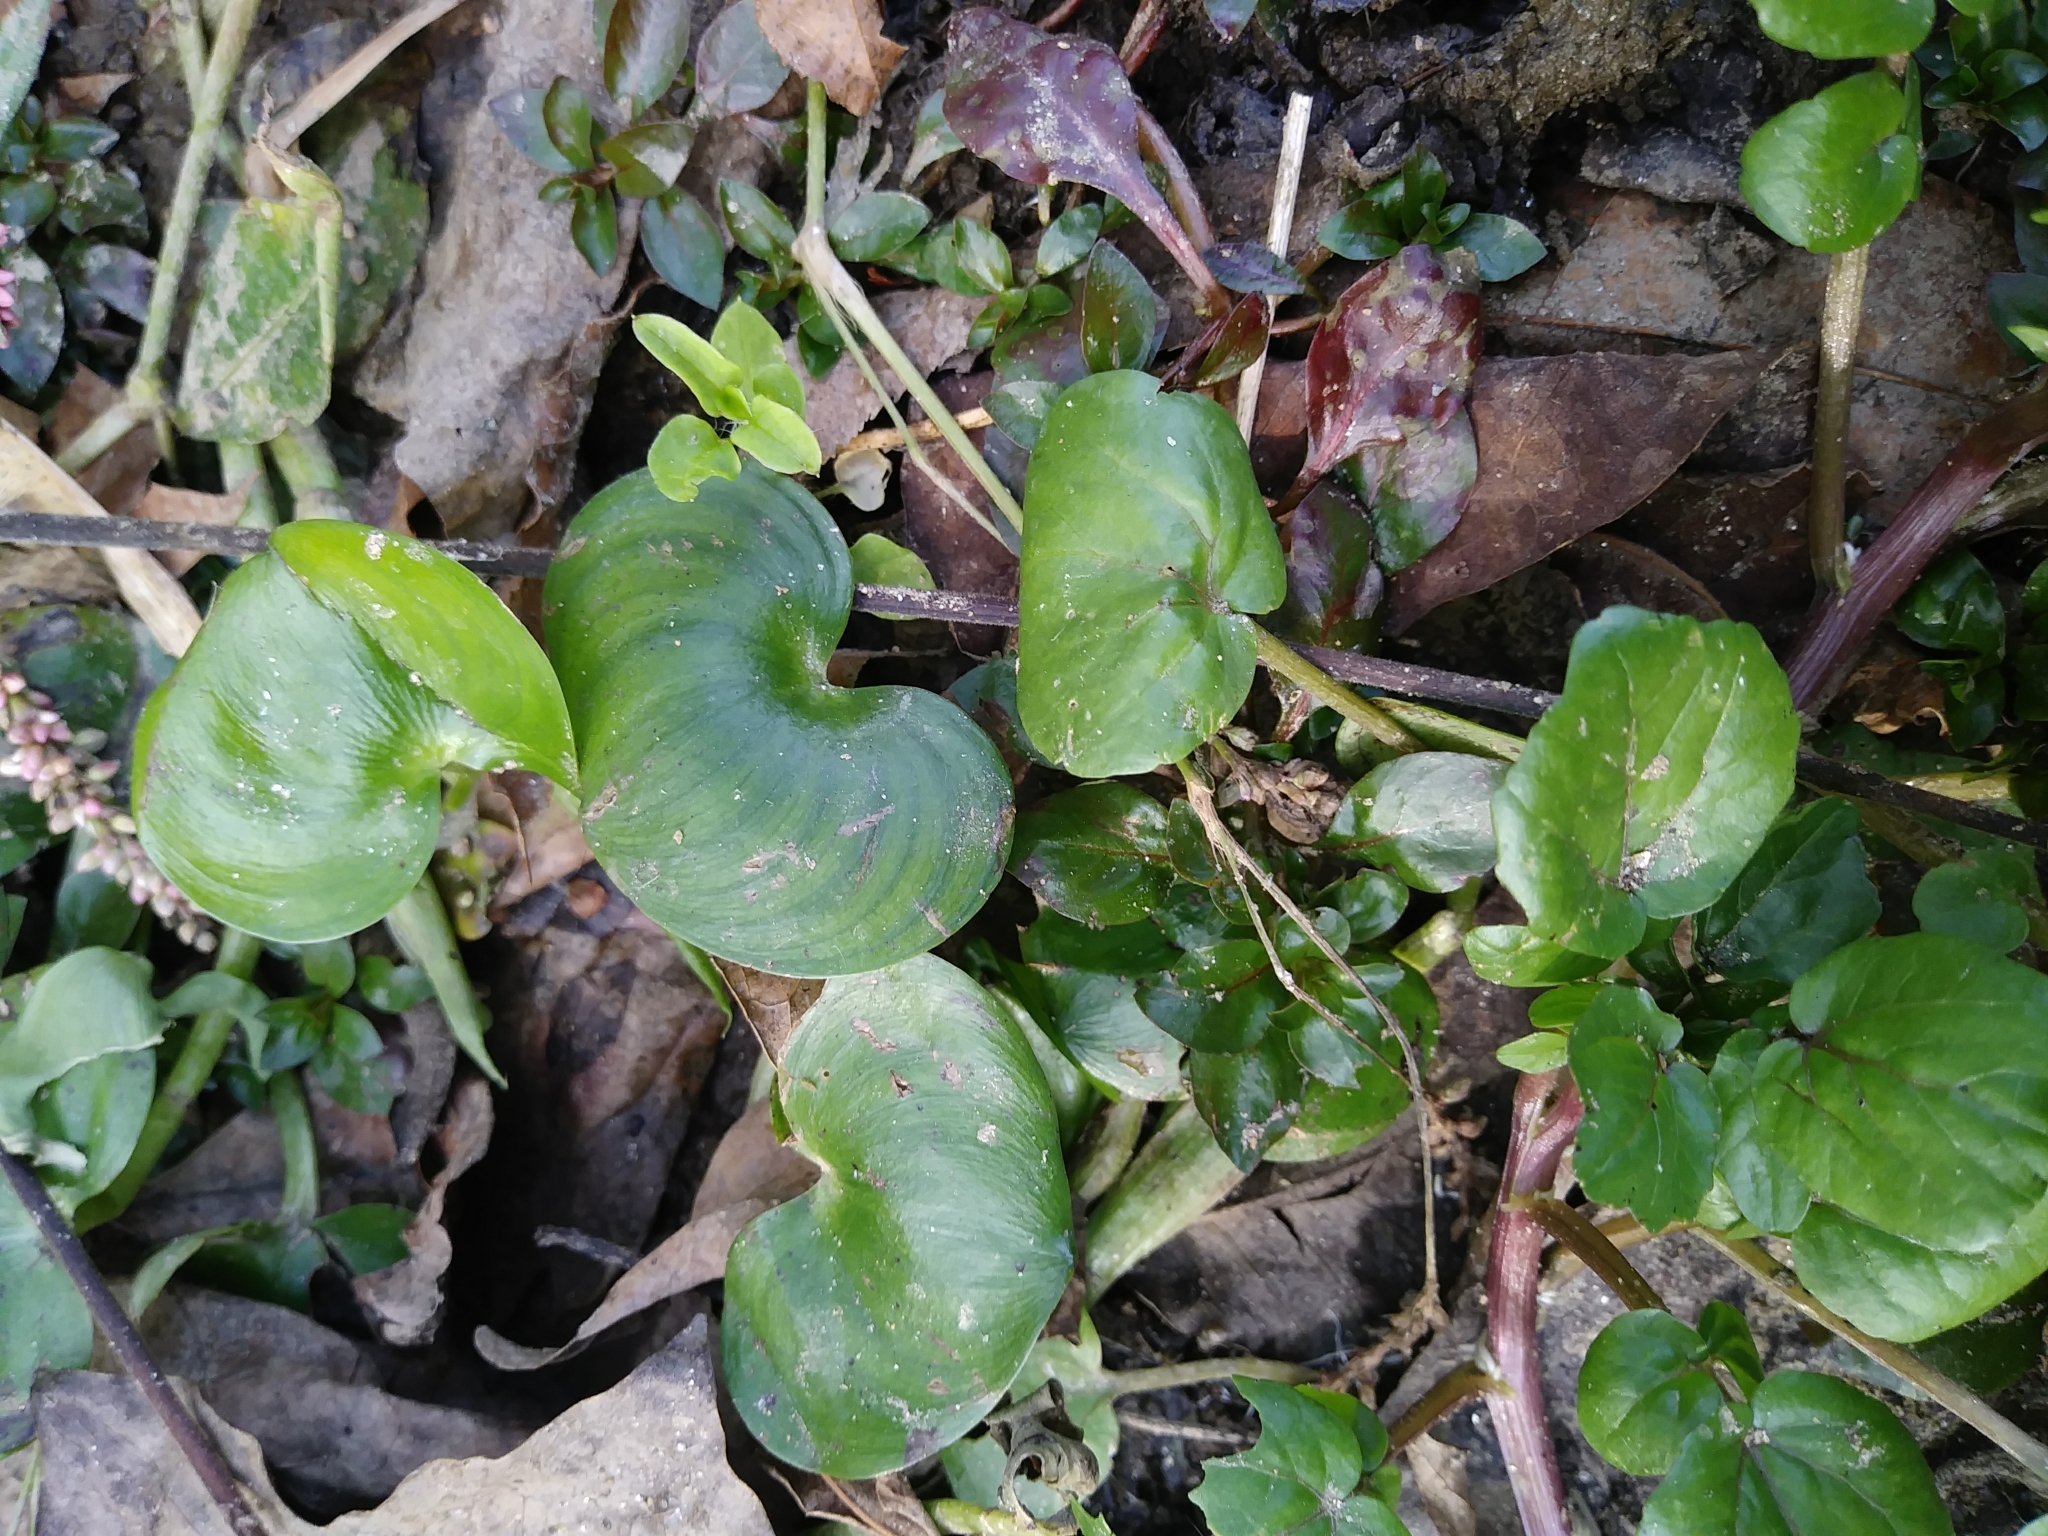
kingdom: Plantae
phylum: Tracheophyta
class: Liliopsida
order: Commelinales
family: Pontederiaceae
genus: Heteranthera
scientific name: Heteranthera reniformis
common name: Kidneyleaf mudplantain
